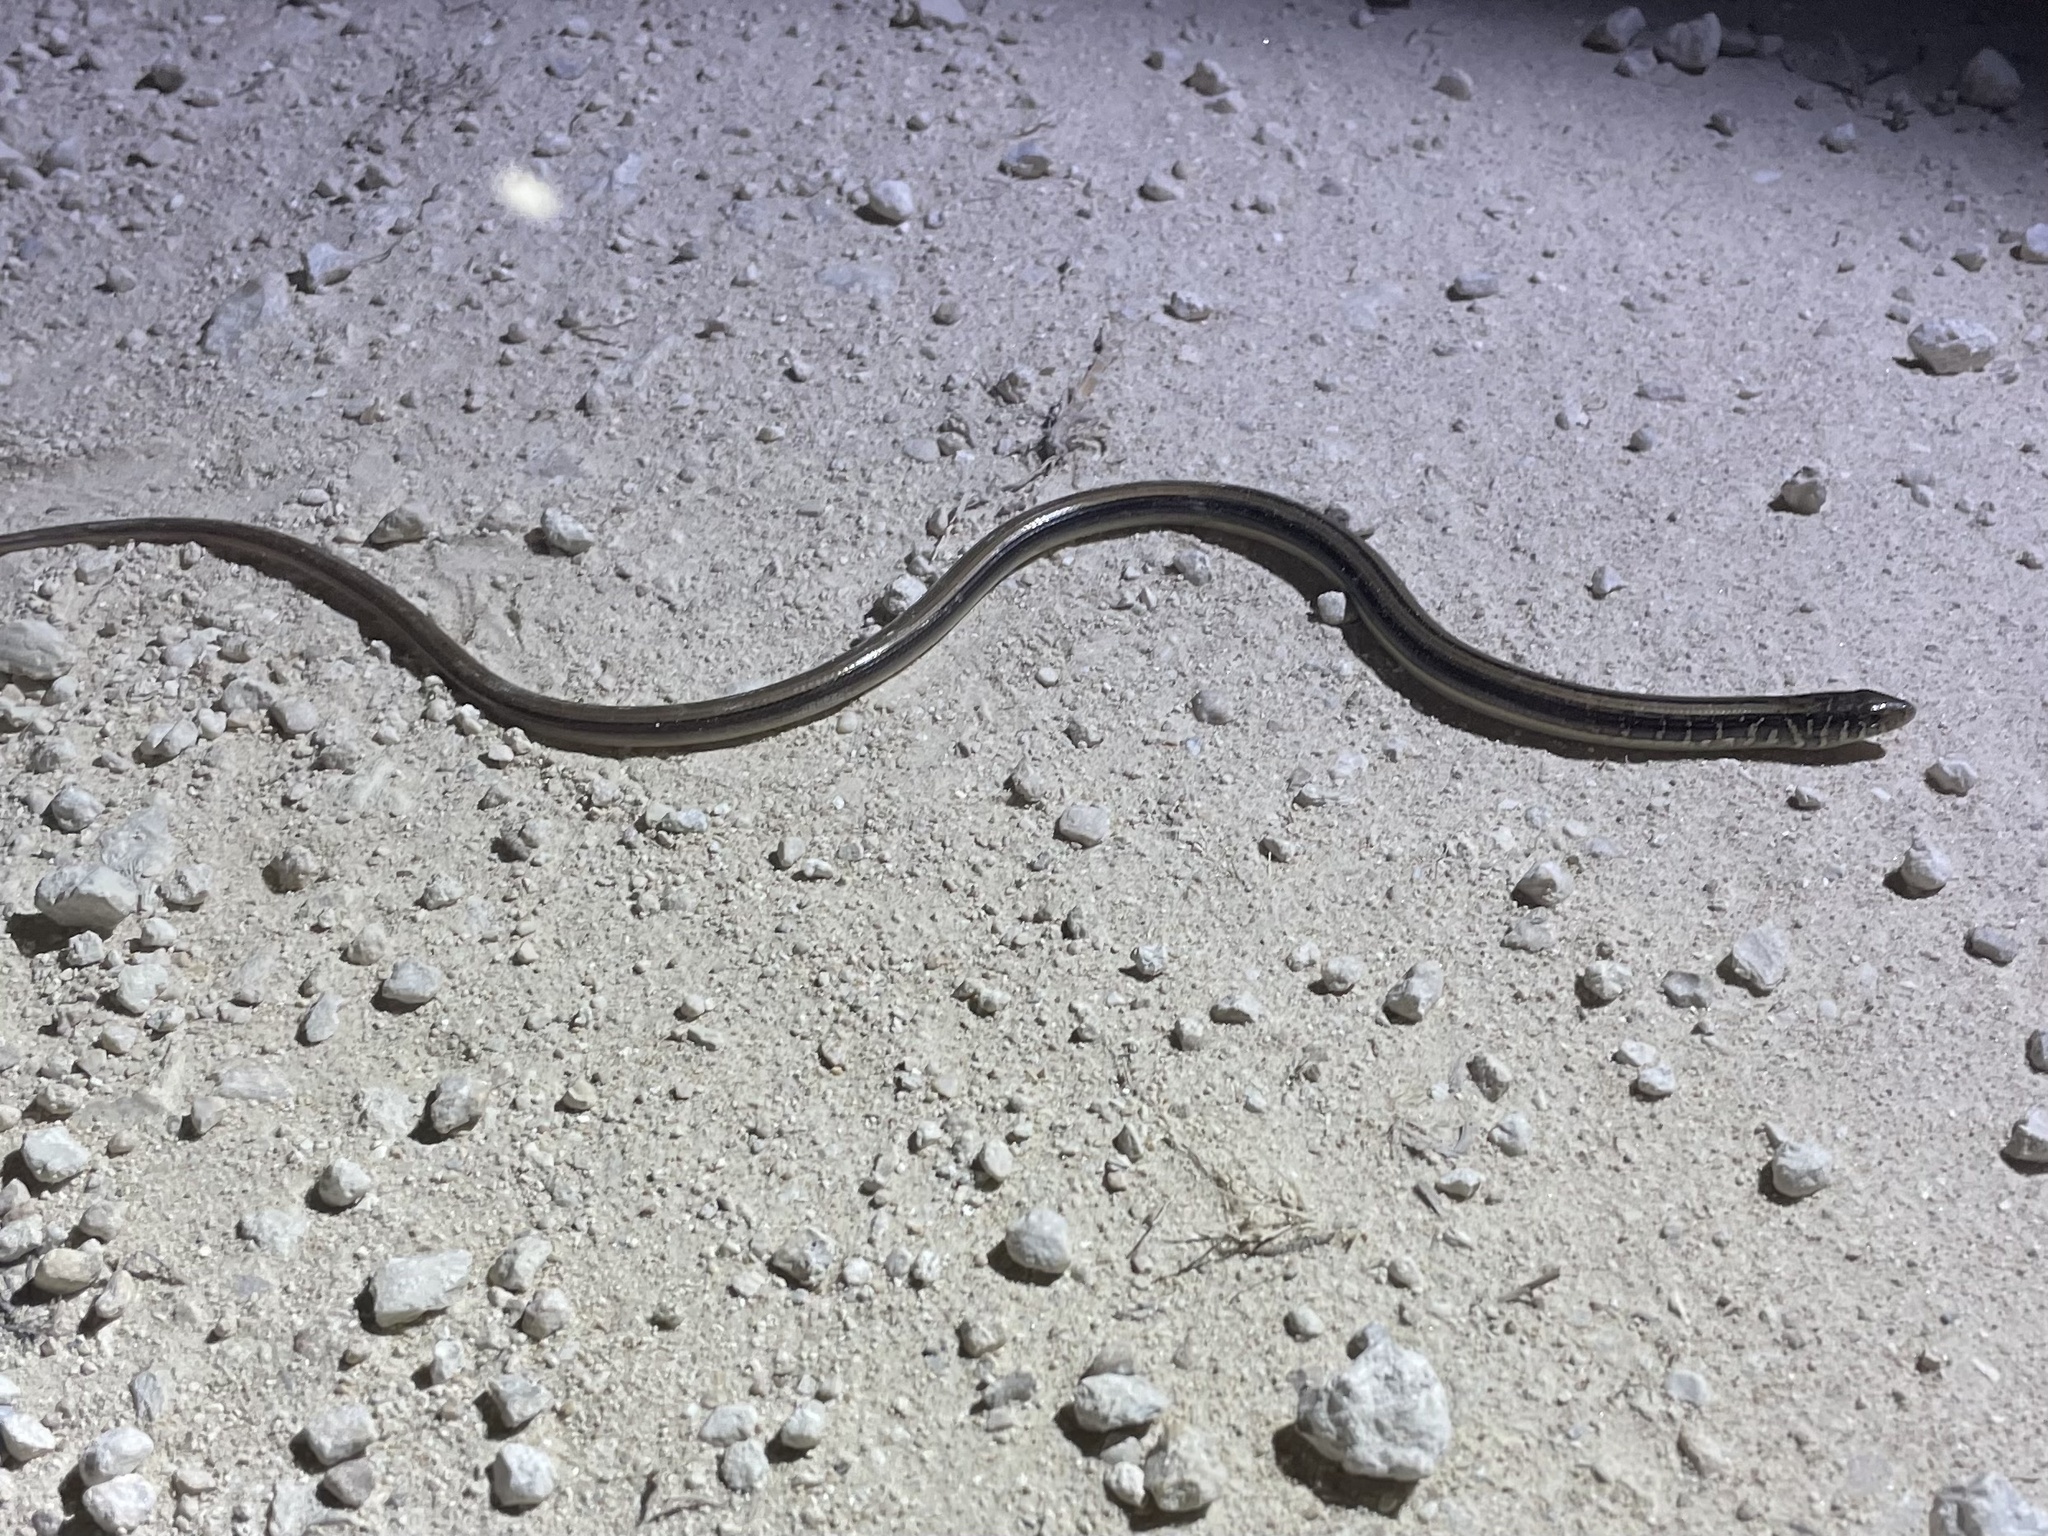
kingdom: Animalia
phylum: Chordata
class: Squamata
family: Anguidae
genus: Ophisaurus
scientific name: Ophisaurus ventralis
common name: Eastern glass lizard
